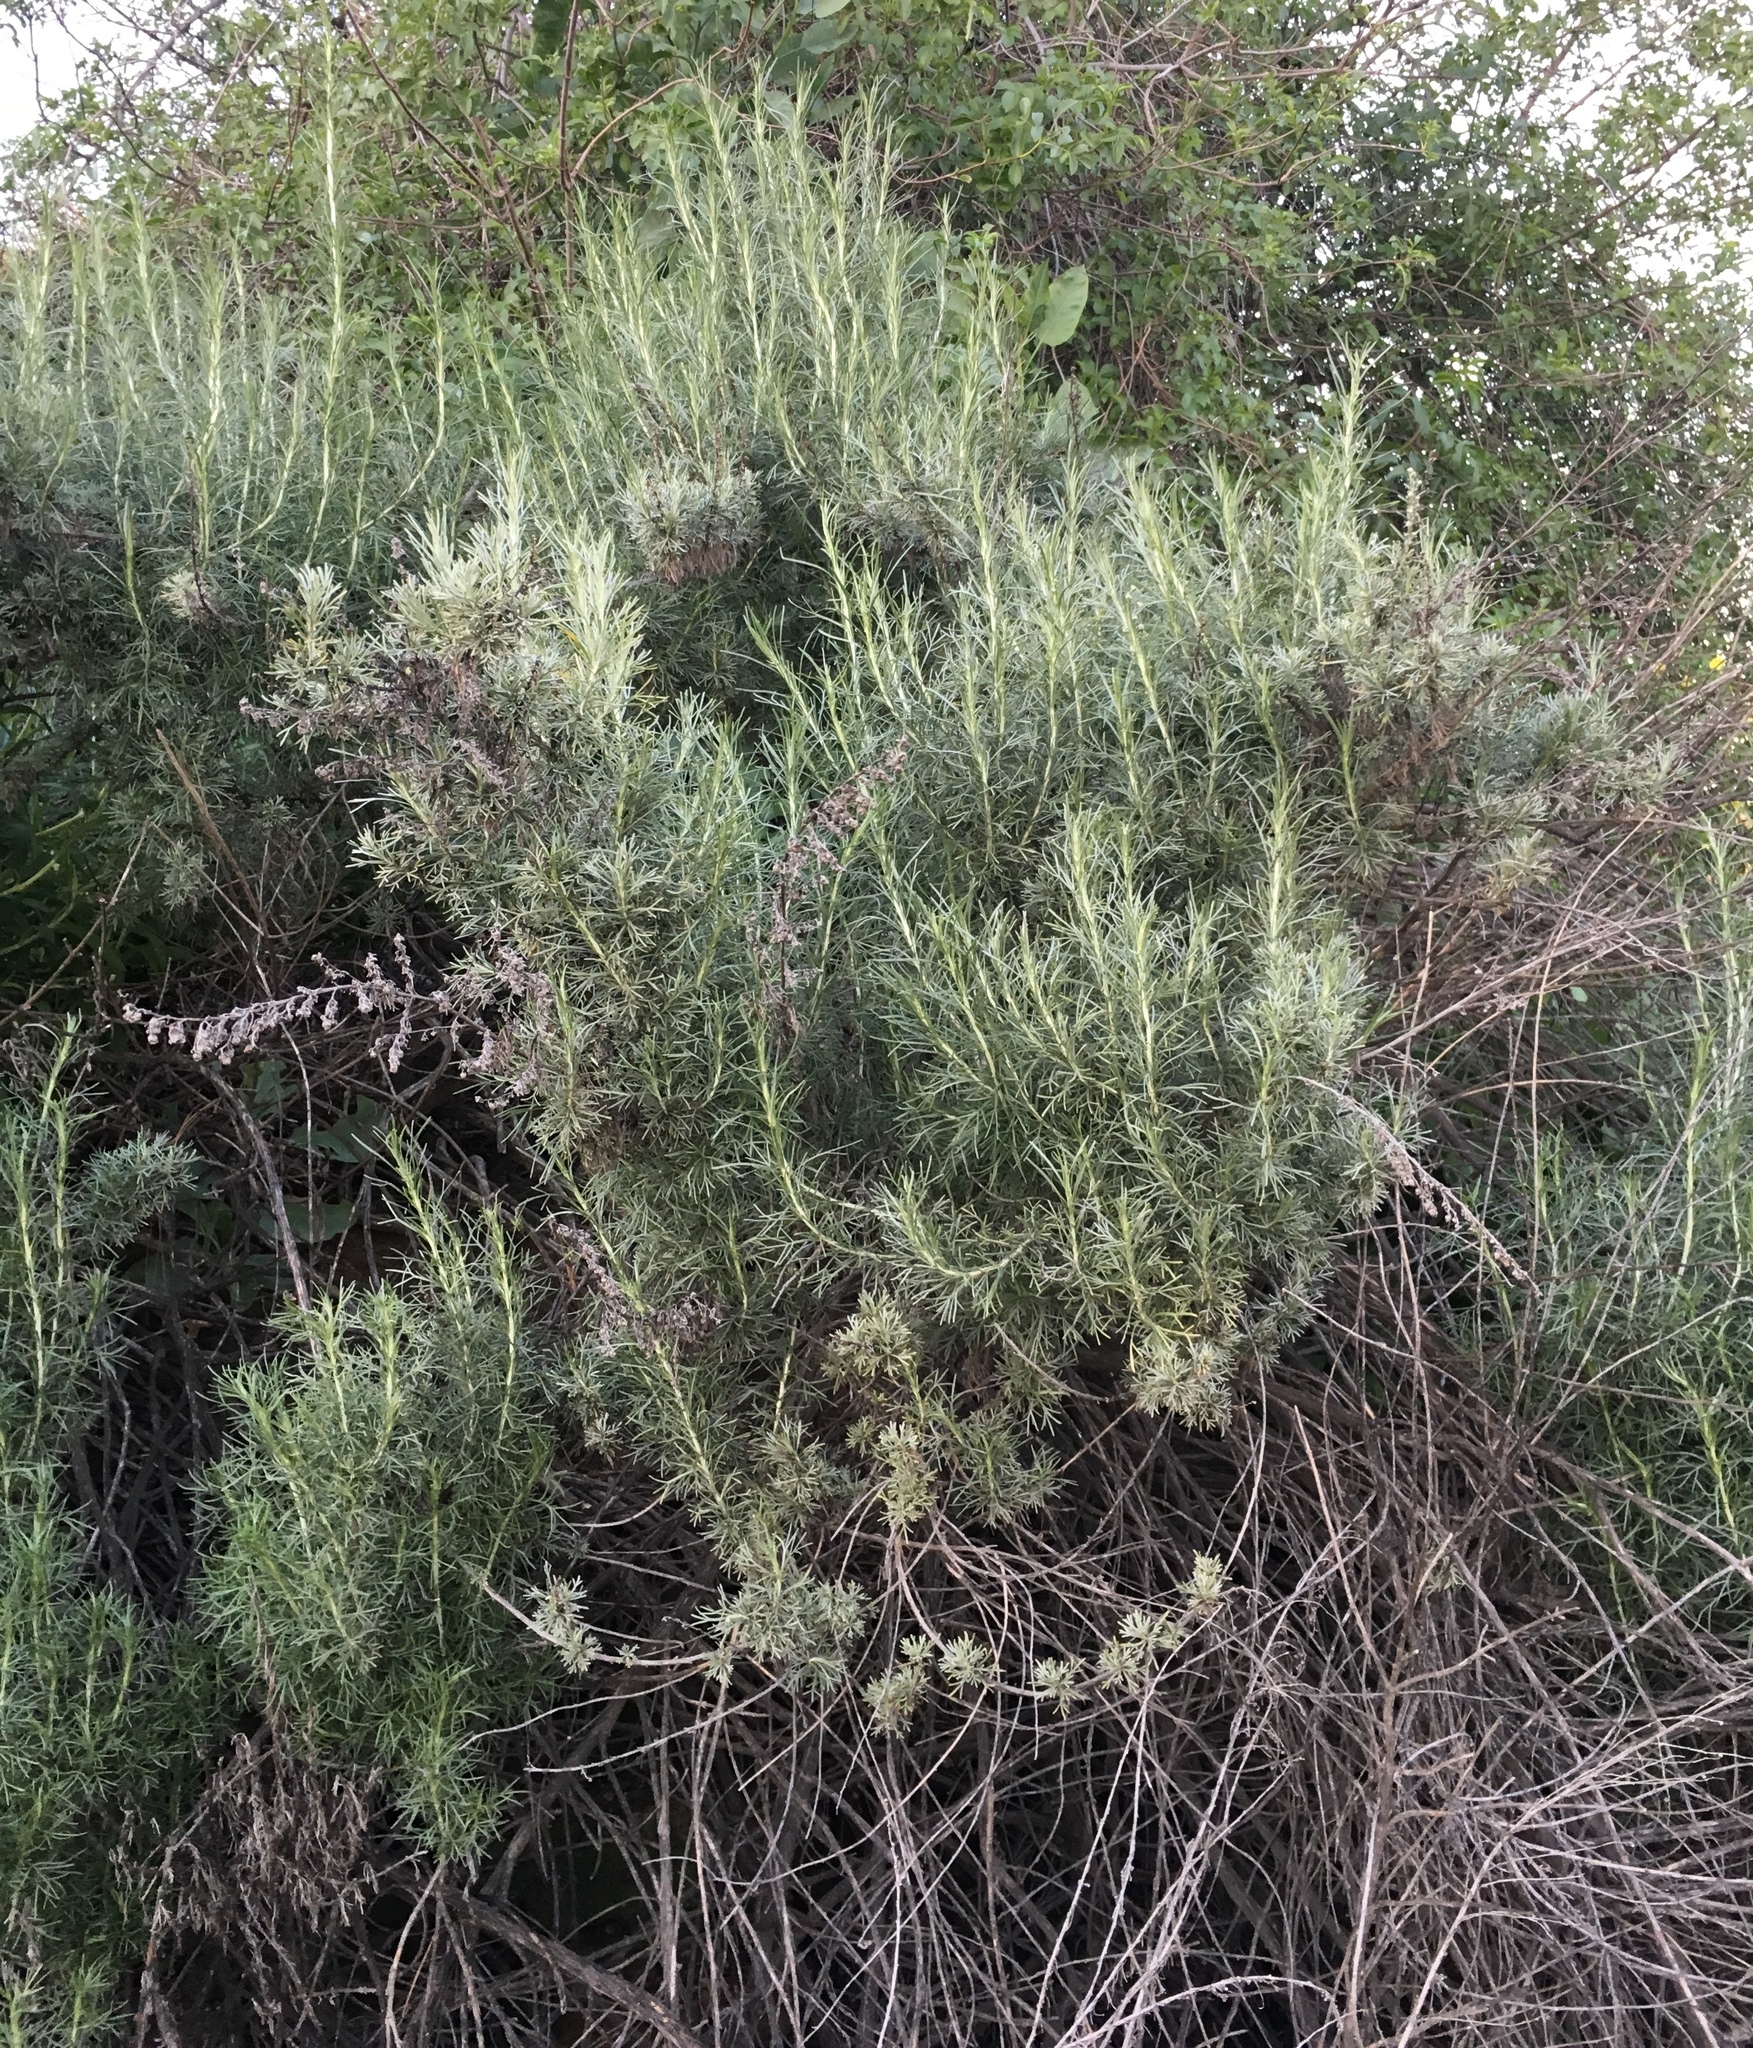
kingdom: Plantae
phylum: Tracheophyta
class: Magnoliopsida
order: Asterales
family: Asteraceae
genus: Artemisia
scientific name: Artemisia californica
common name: California sagebrush
